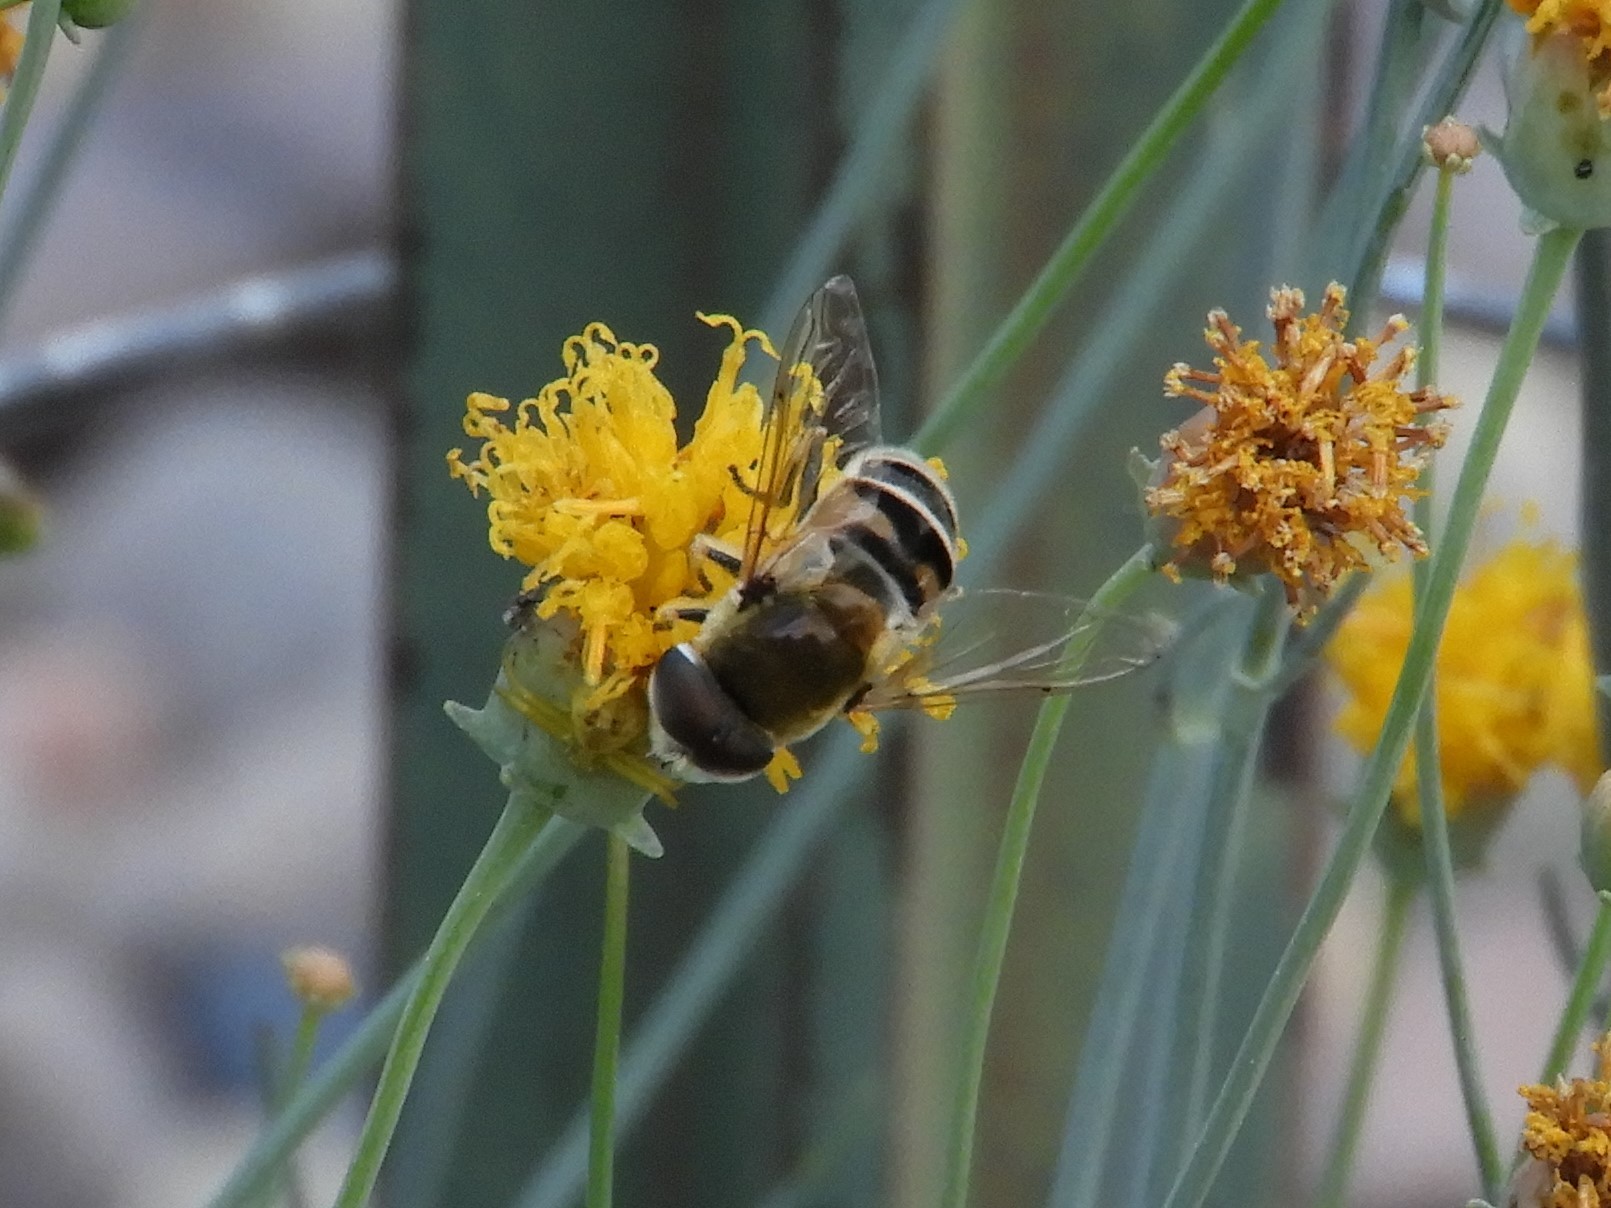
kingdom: Animalia
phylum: Arthropoda
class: Insecta
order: Diptera
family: Syrphidae
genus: Eristalis
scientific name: Eristalis stipator
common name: Yellow-shouldered drone fly
